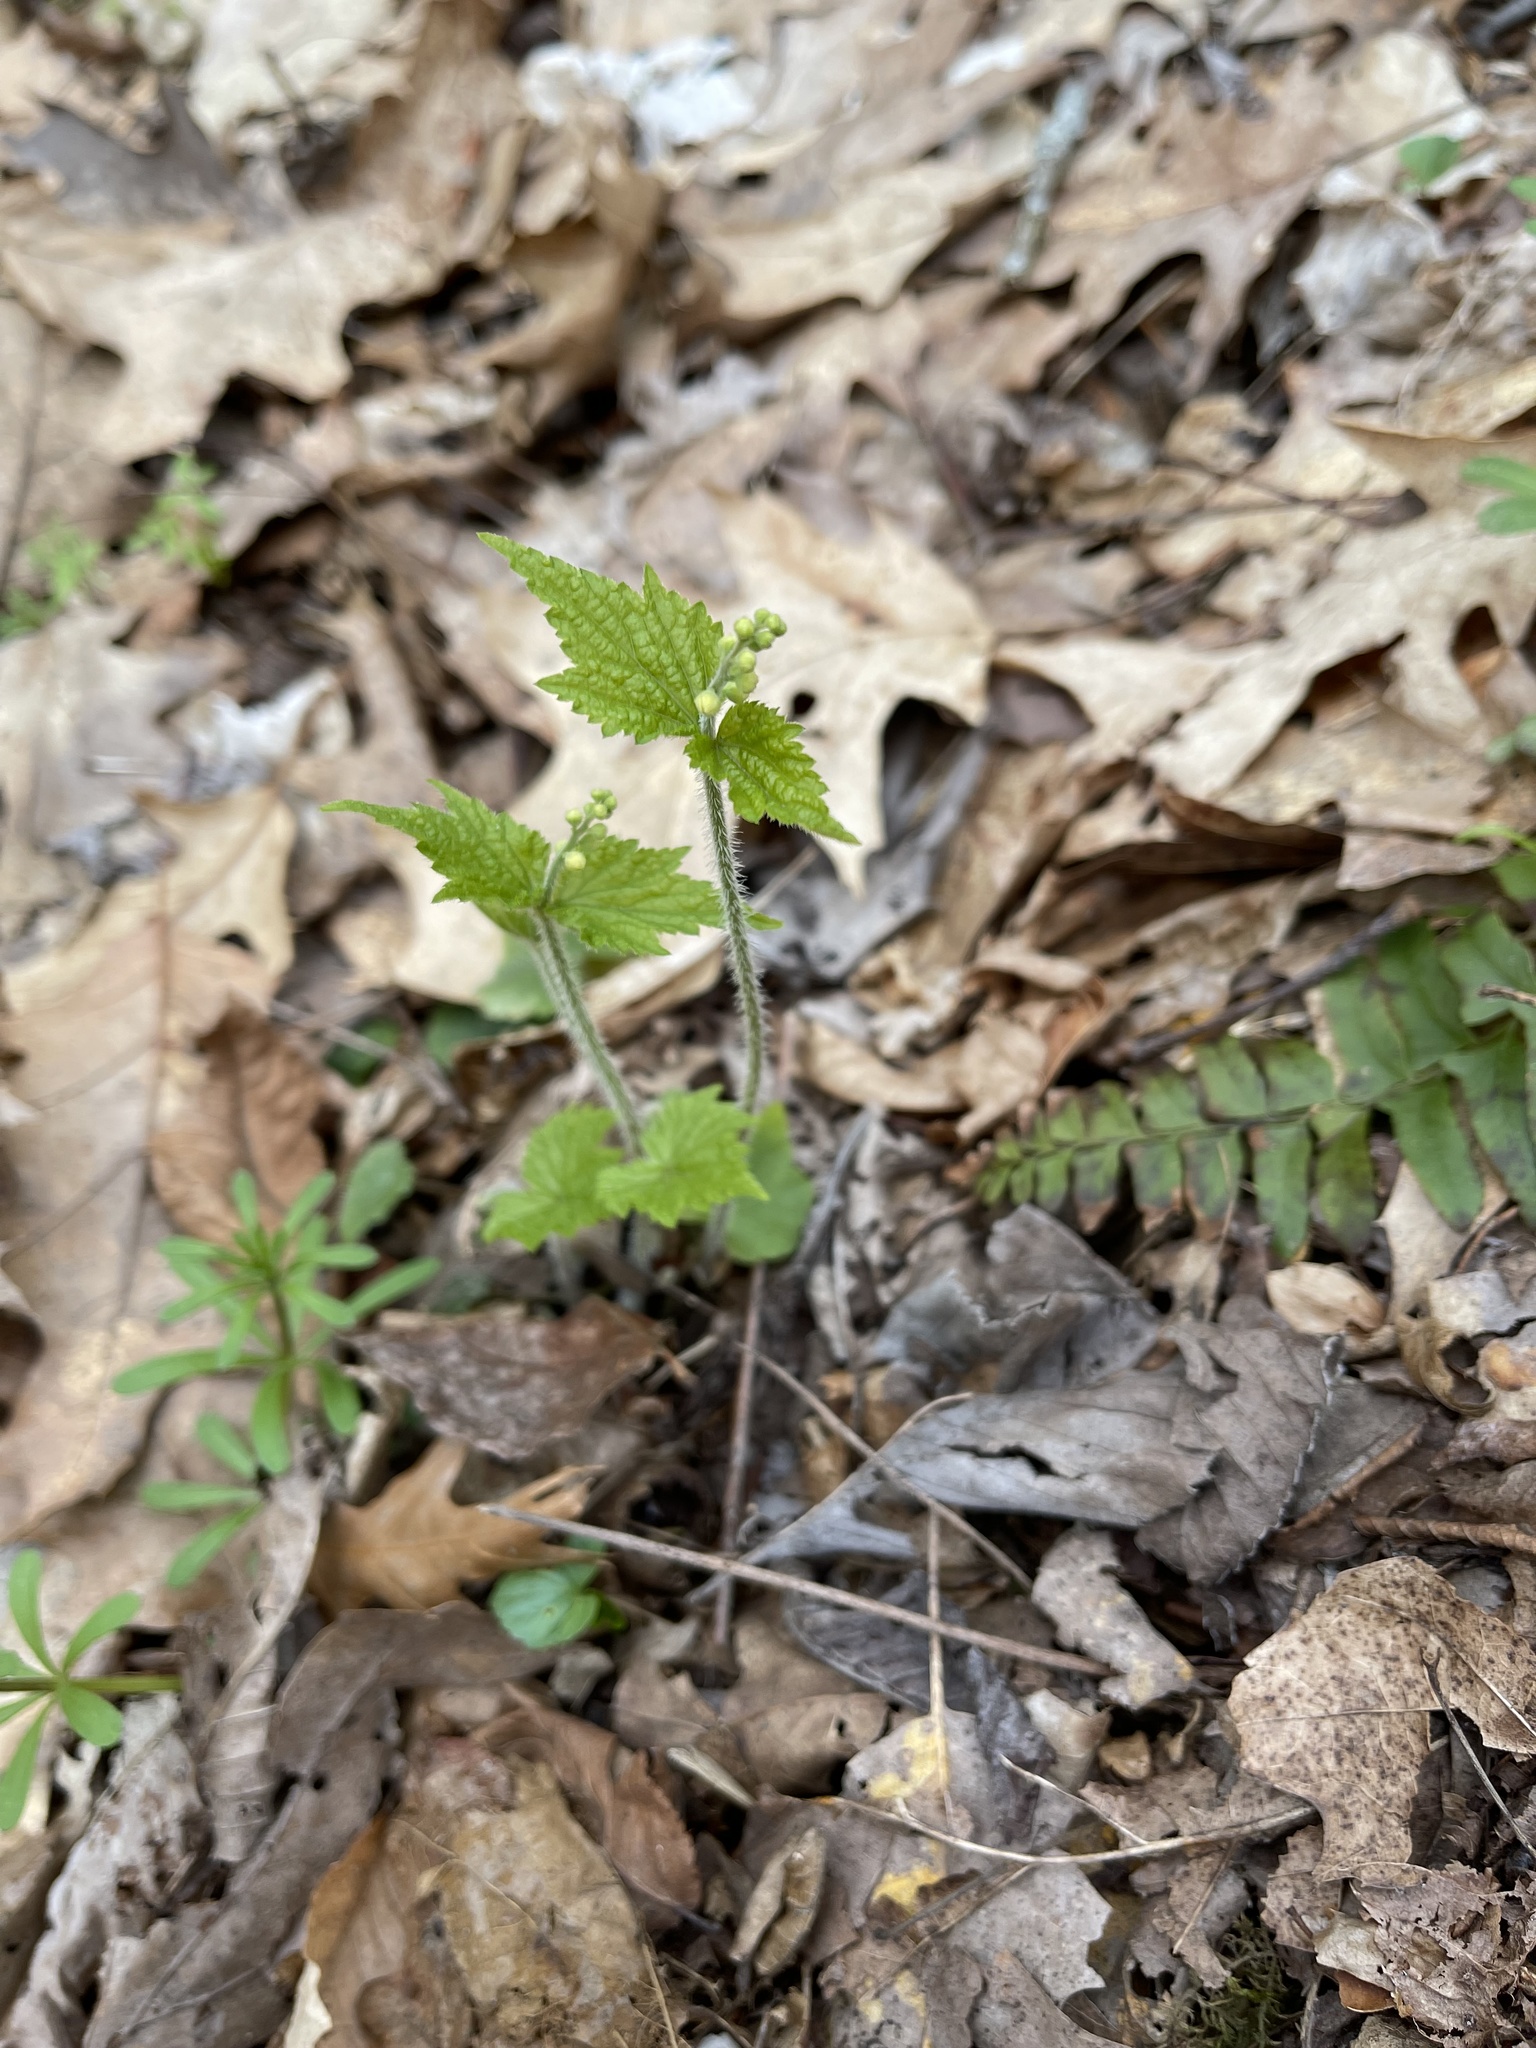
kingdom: Plantae
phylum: Tracheophyta
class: Magnoliopsida
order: Saxifragales
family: Saxifragaceae
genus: Mitella
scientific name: Mitella diphylla
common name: Coolwort
